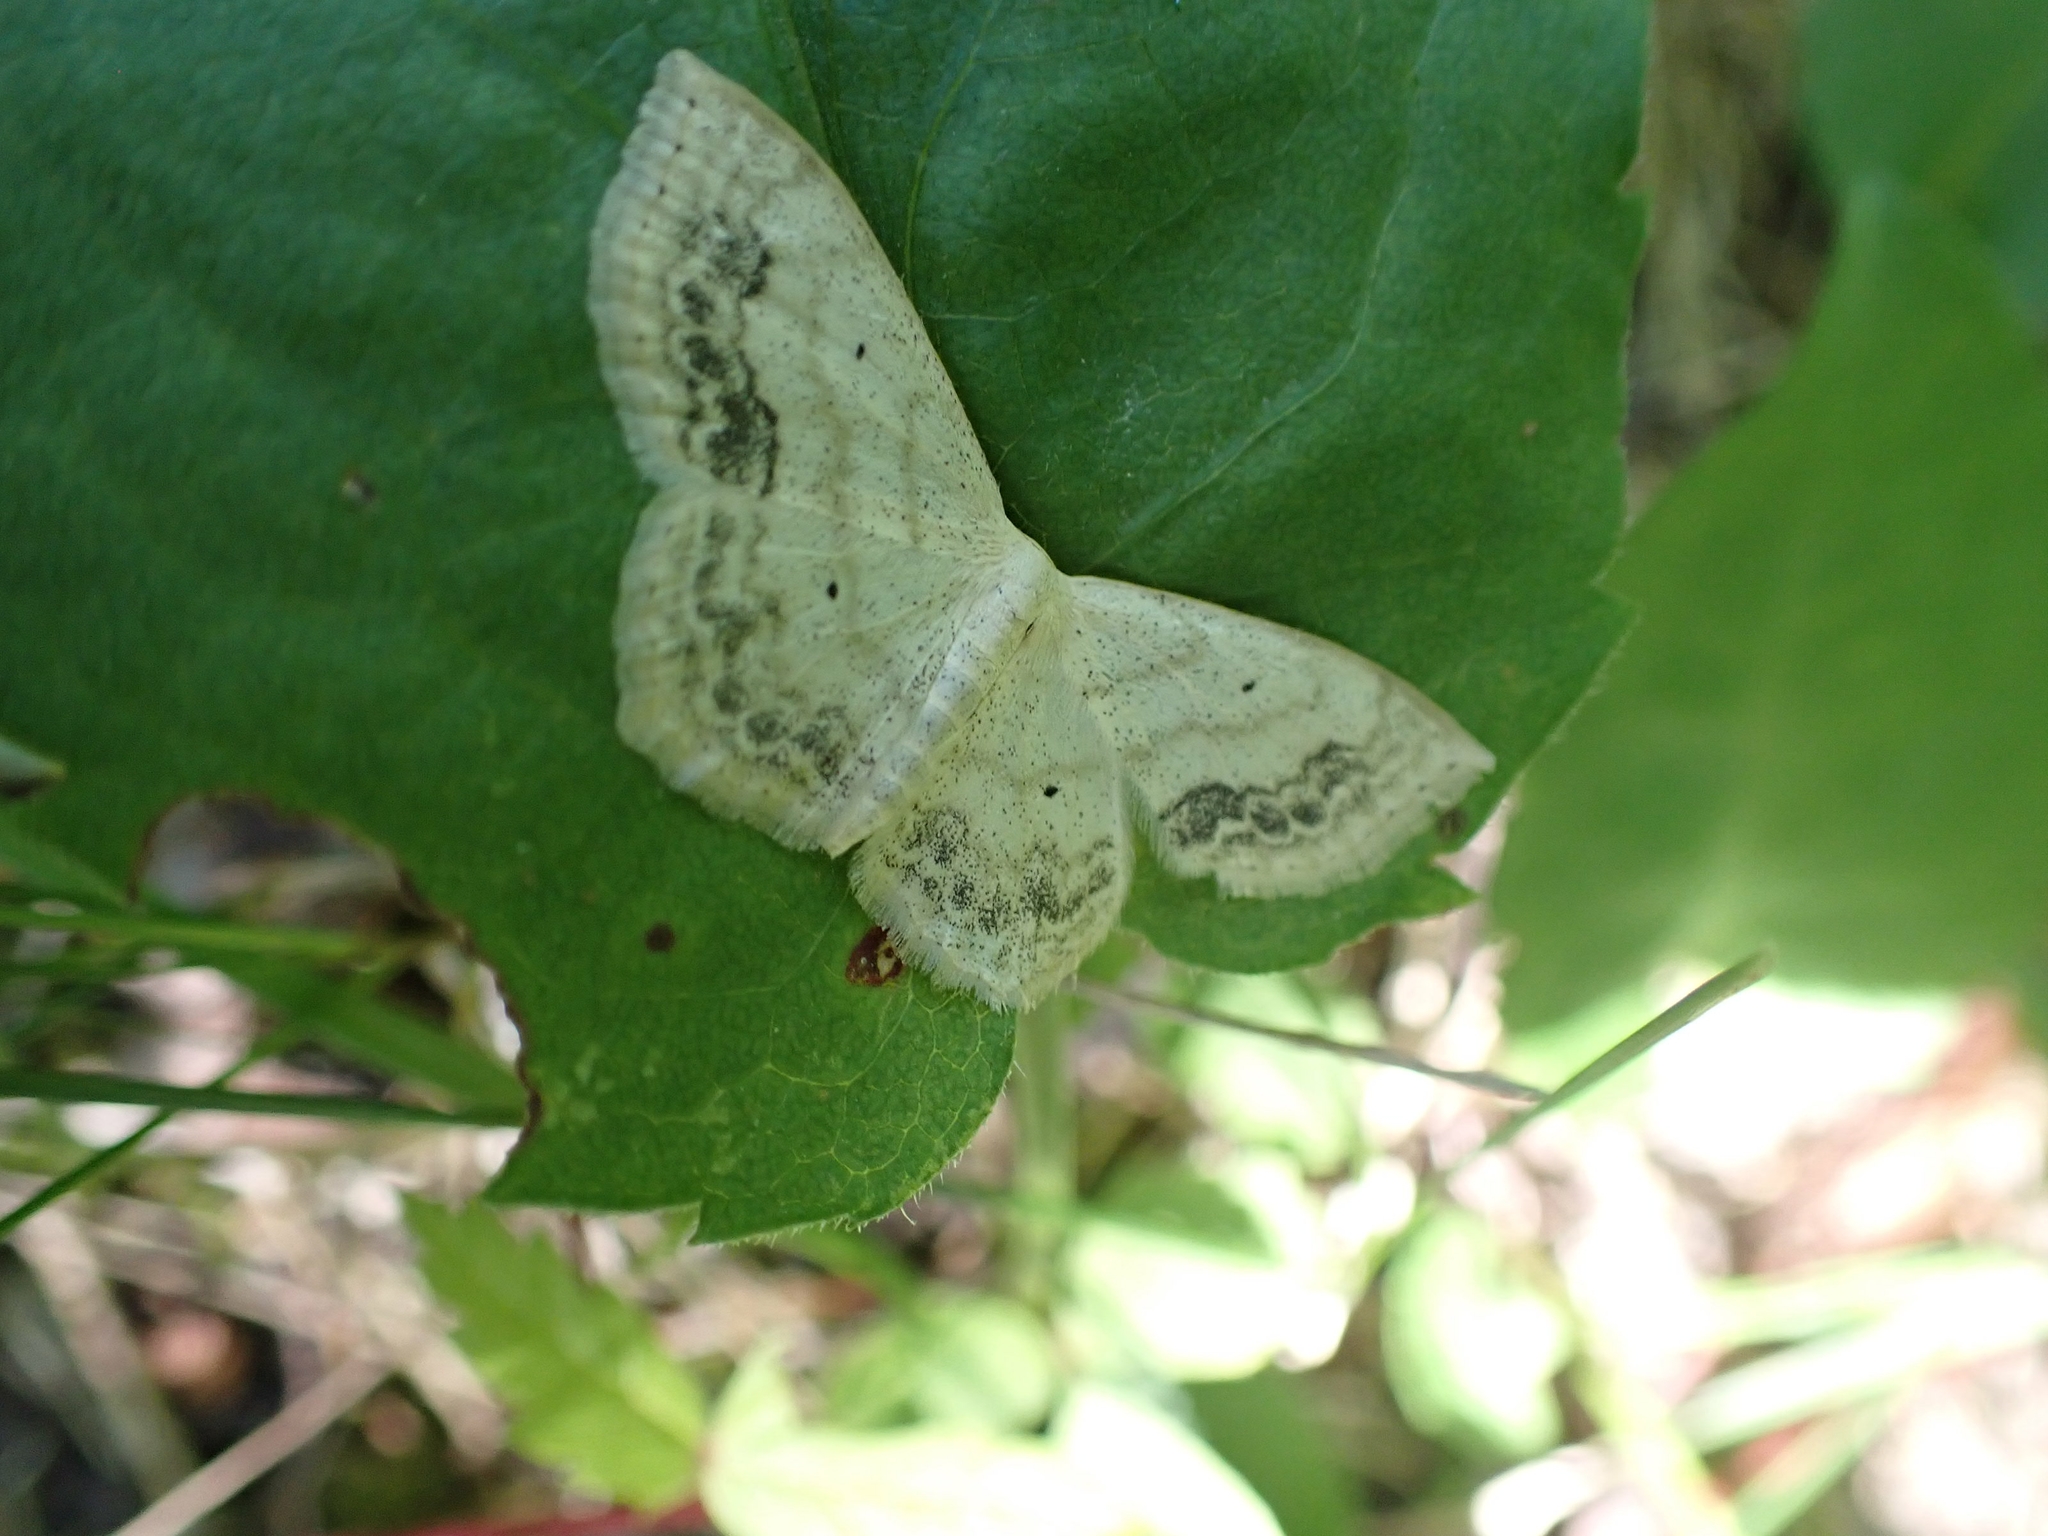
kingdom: Animalia
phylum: Arthropoda
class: Insecta
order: Lepidoptera
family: Geometridae
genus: Scopula
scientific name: Scopula limboundata
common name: Large lace border
